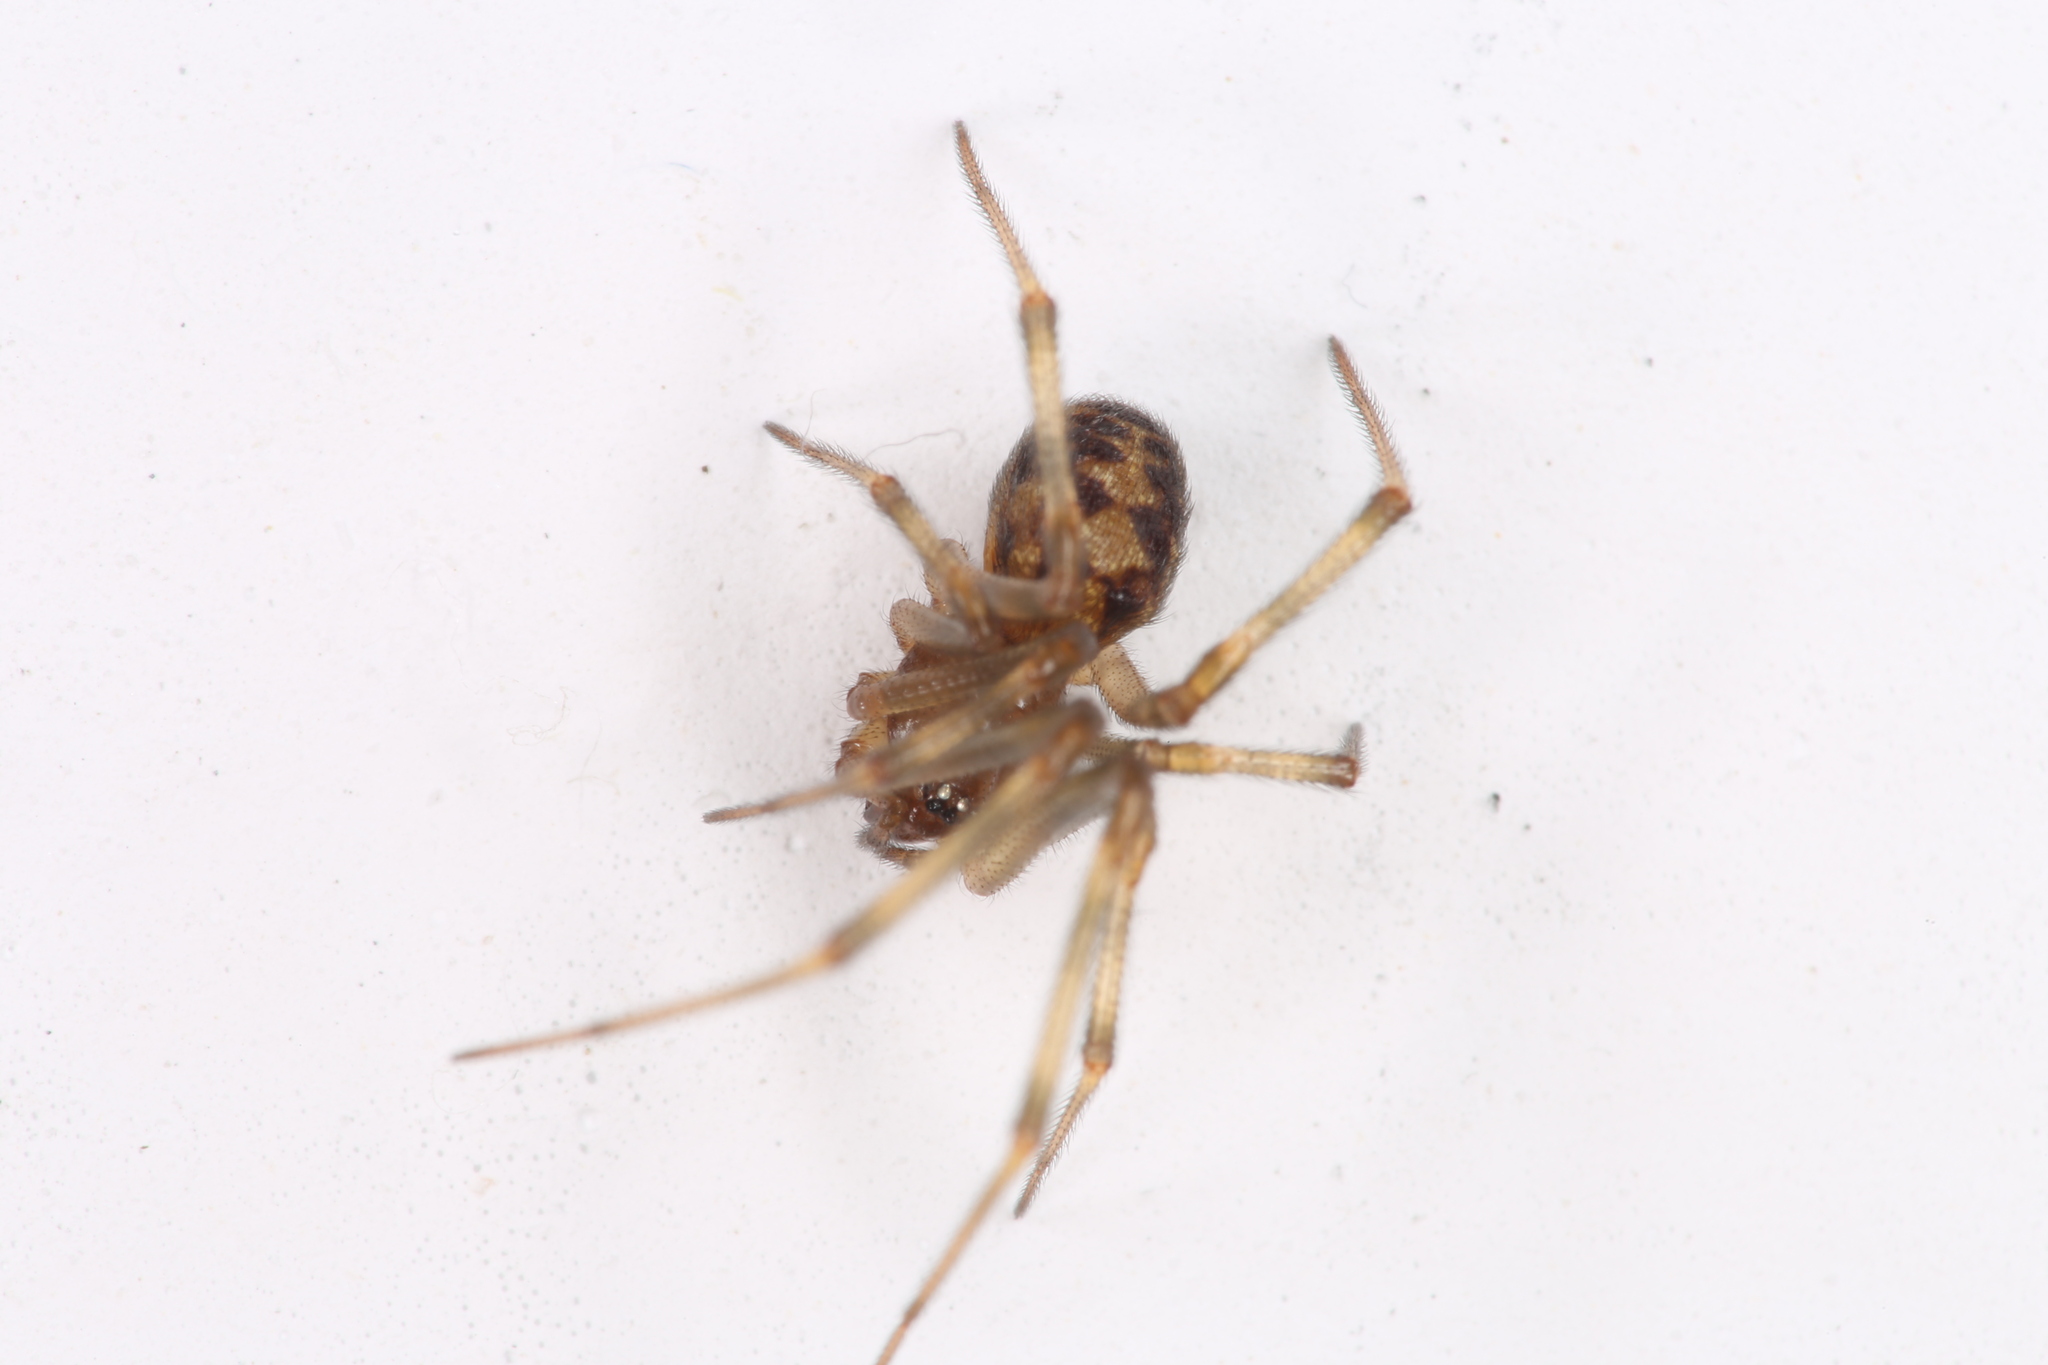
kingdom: Animalia
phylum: Arthropoda
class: Arachnida
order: Araneae
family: Theridiidae
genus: Steatoda
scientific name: Steatoda triangulosa
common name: Triangulate bud spider
